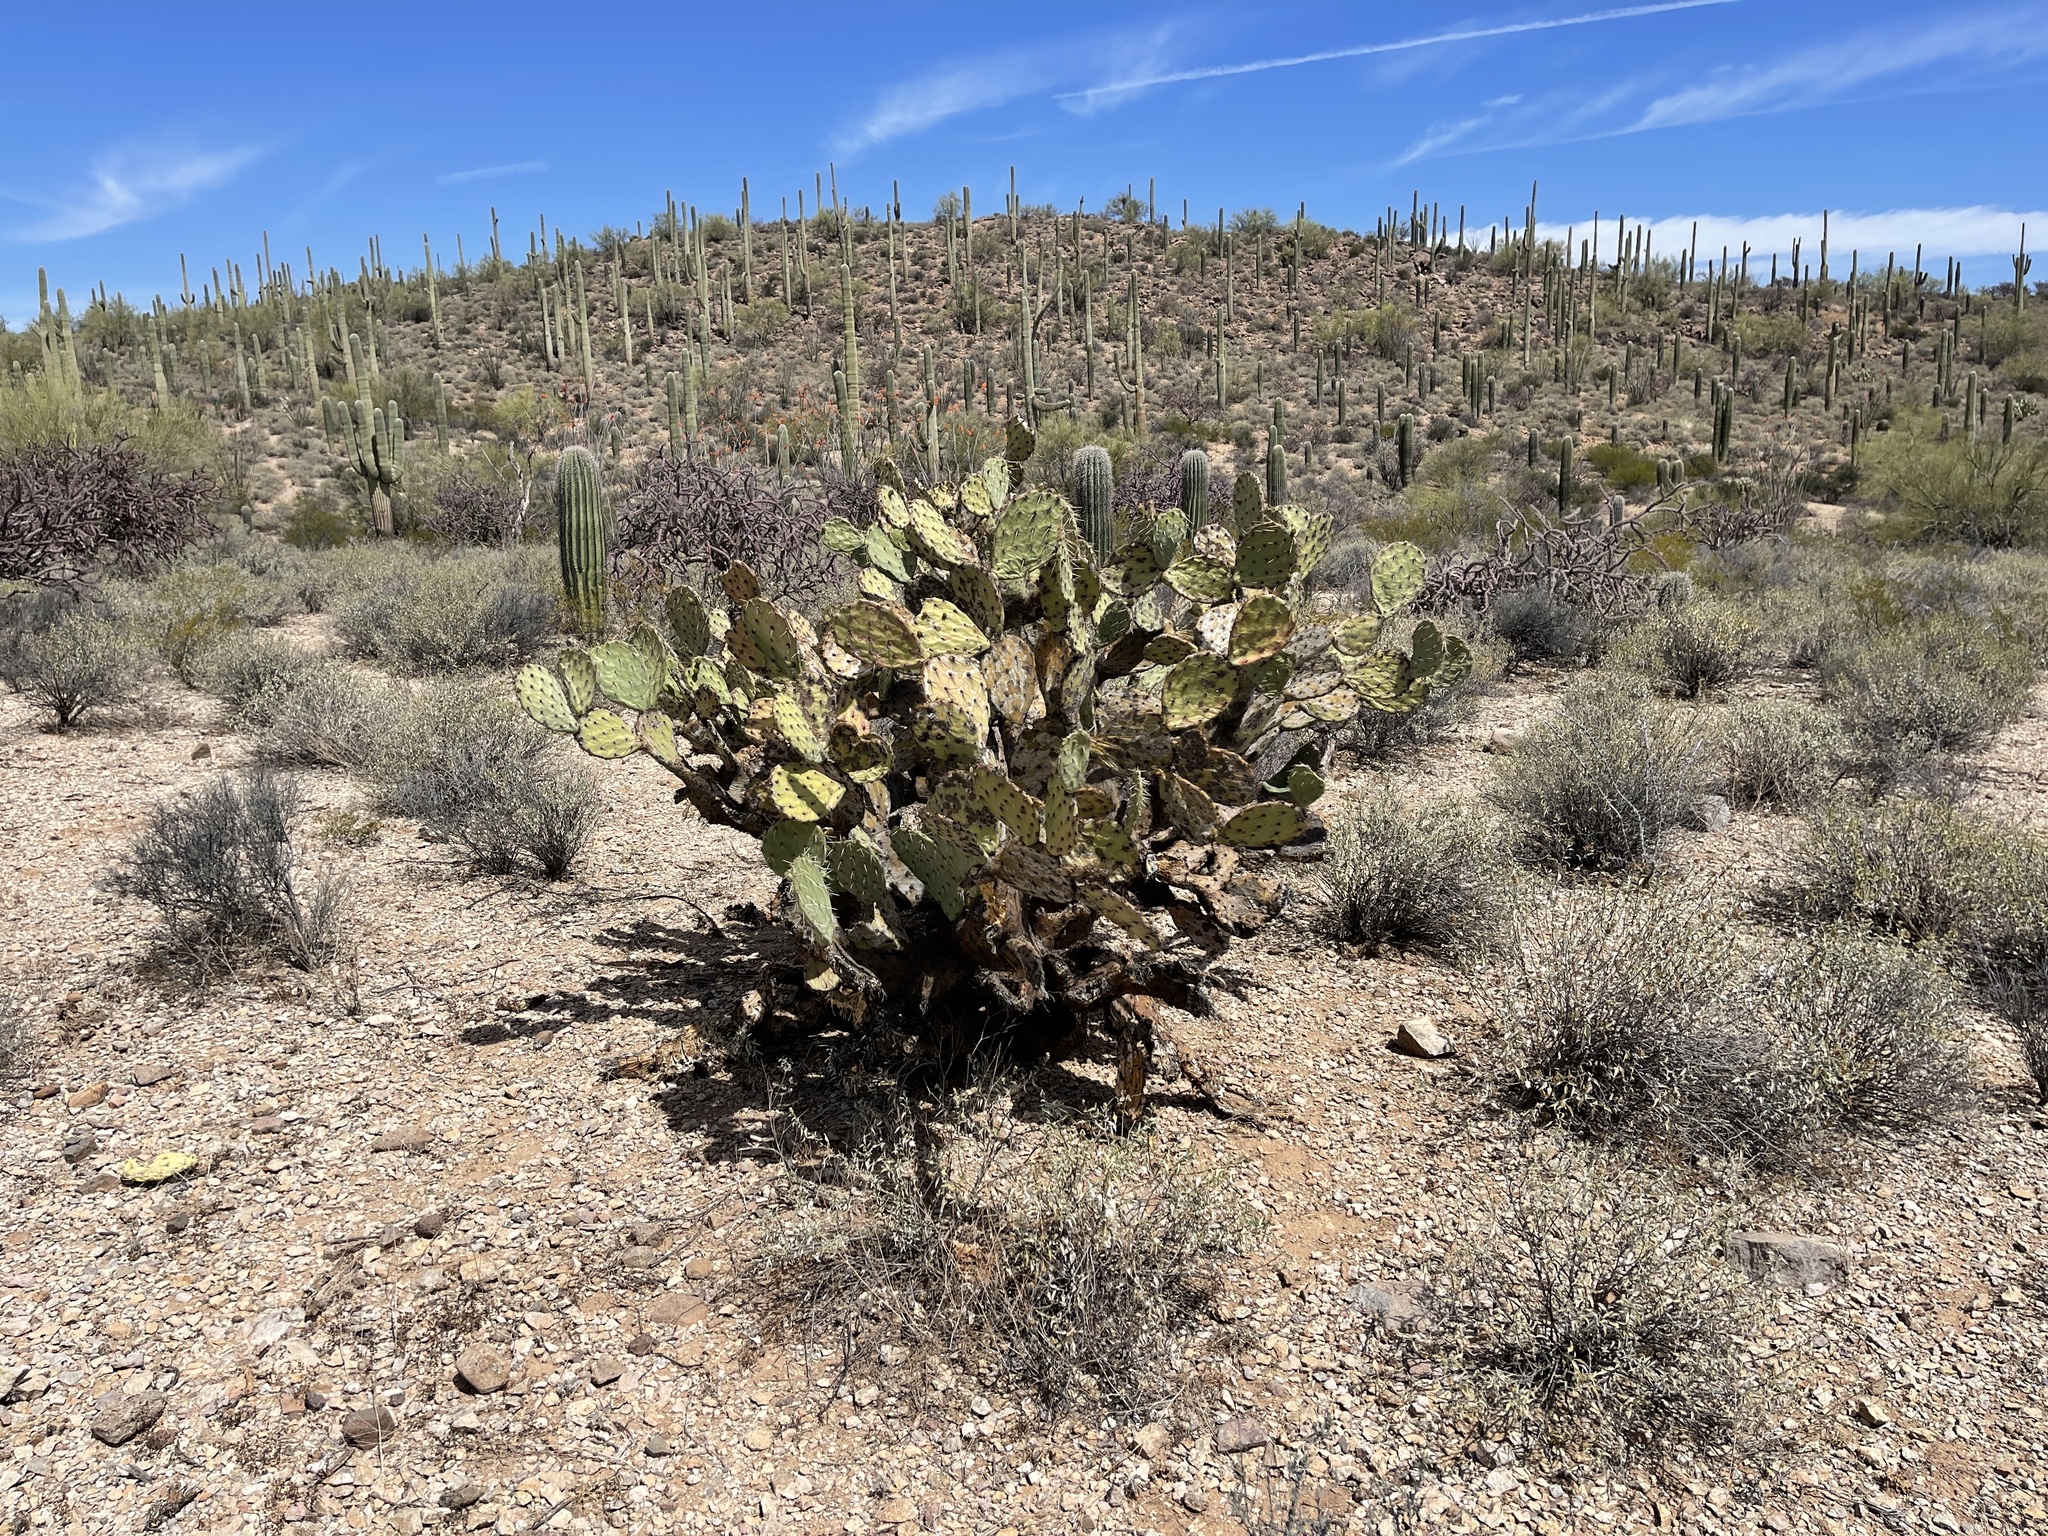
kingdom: Plantae
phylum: Tracheophyta
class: Magnoliopsida
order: Caryophyllales
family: Cactaceae
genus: Opuntia
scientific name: Opuntia engelmannii
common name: Cactus-apple
